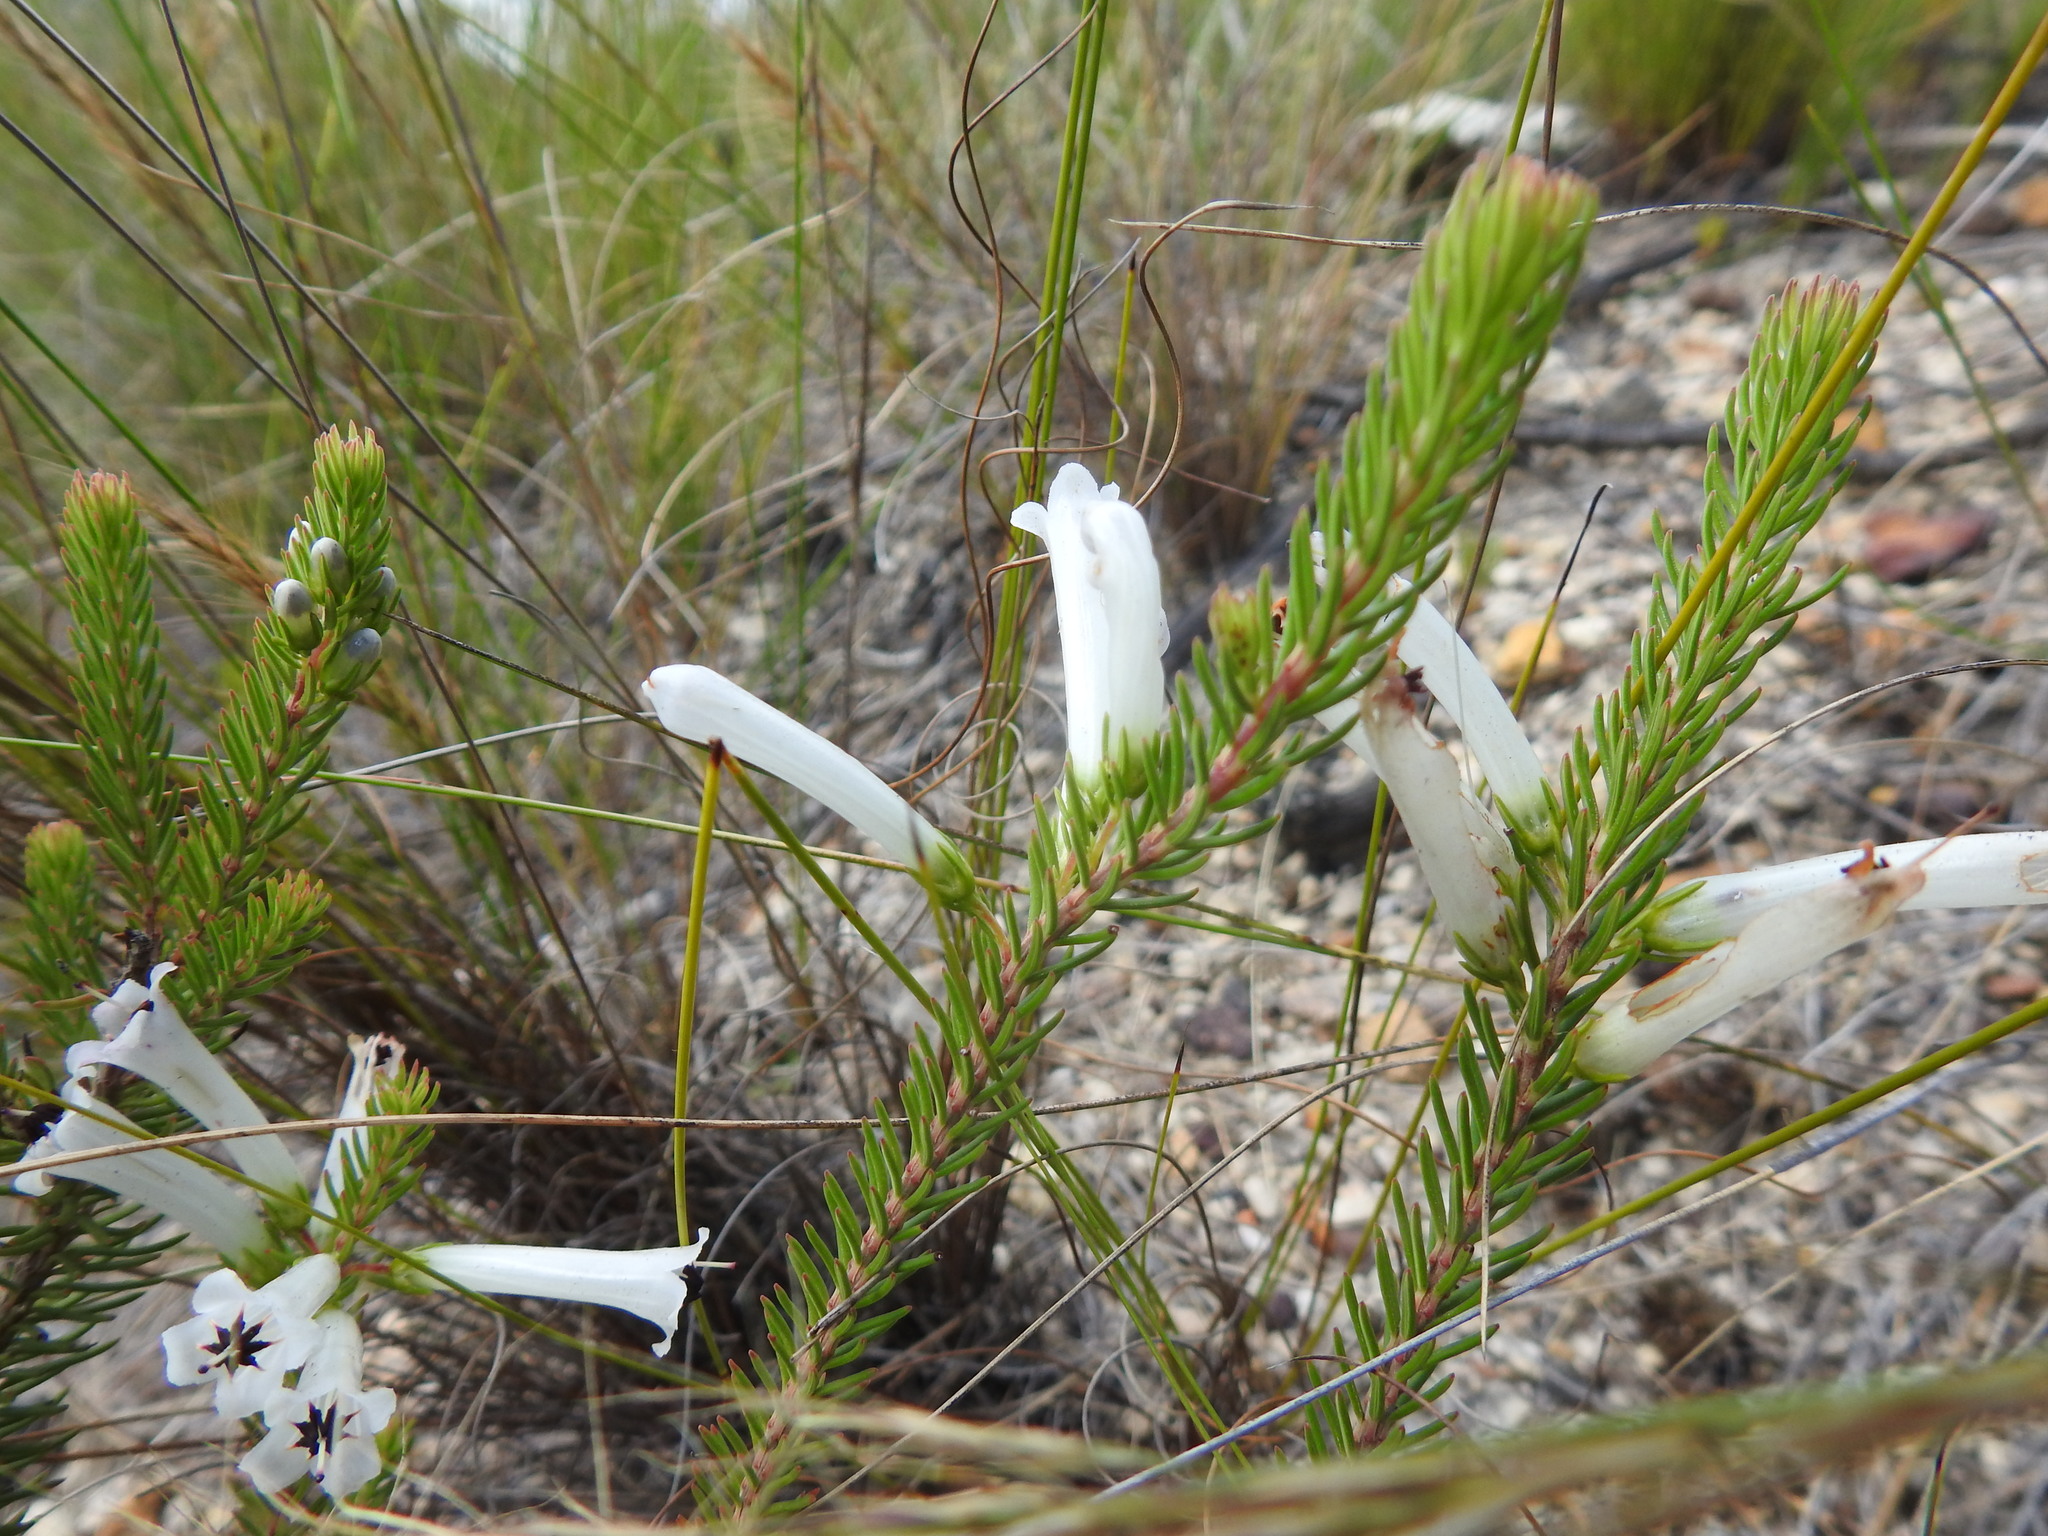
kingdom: Plantae
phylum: Tracheophyta
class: Magnoliopsida
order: Ericales
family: Ericaceae
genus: Erica
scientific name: Erica pinea
